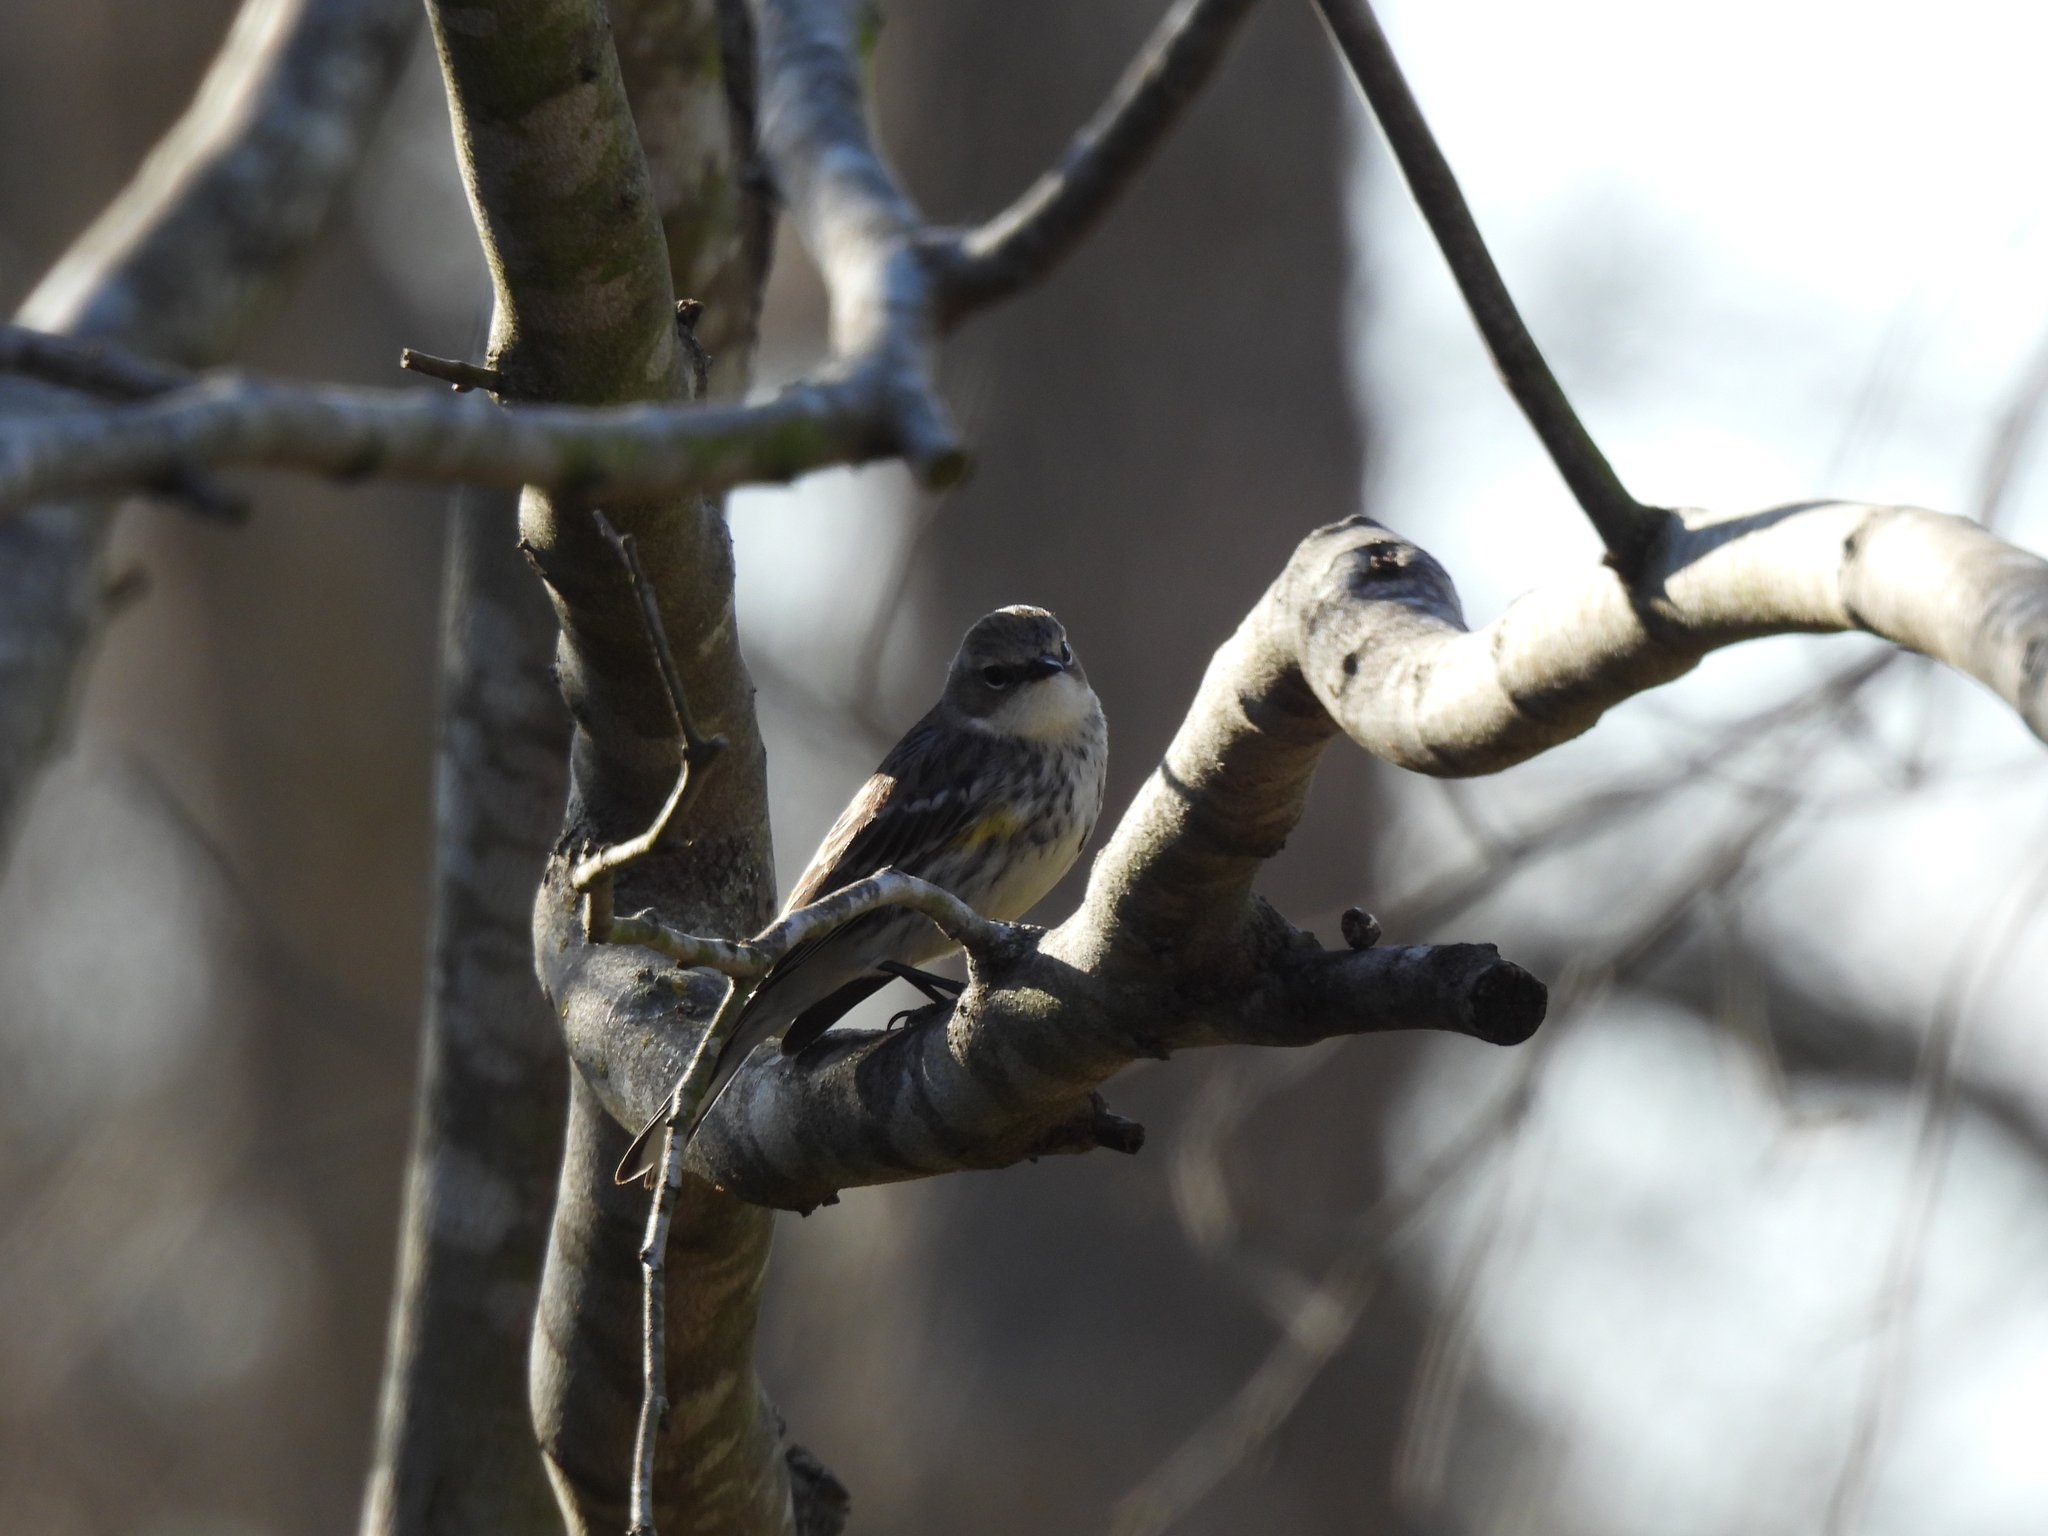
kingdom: Animalia
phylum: Chordata
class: Aves
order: Passeriformes
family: Parulidae
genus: Setophaga
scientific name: Setophaga coronata
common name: Myrtle warbler
